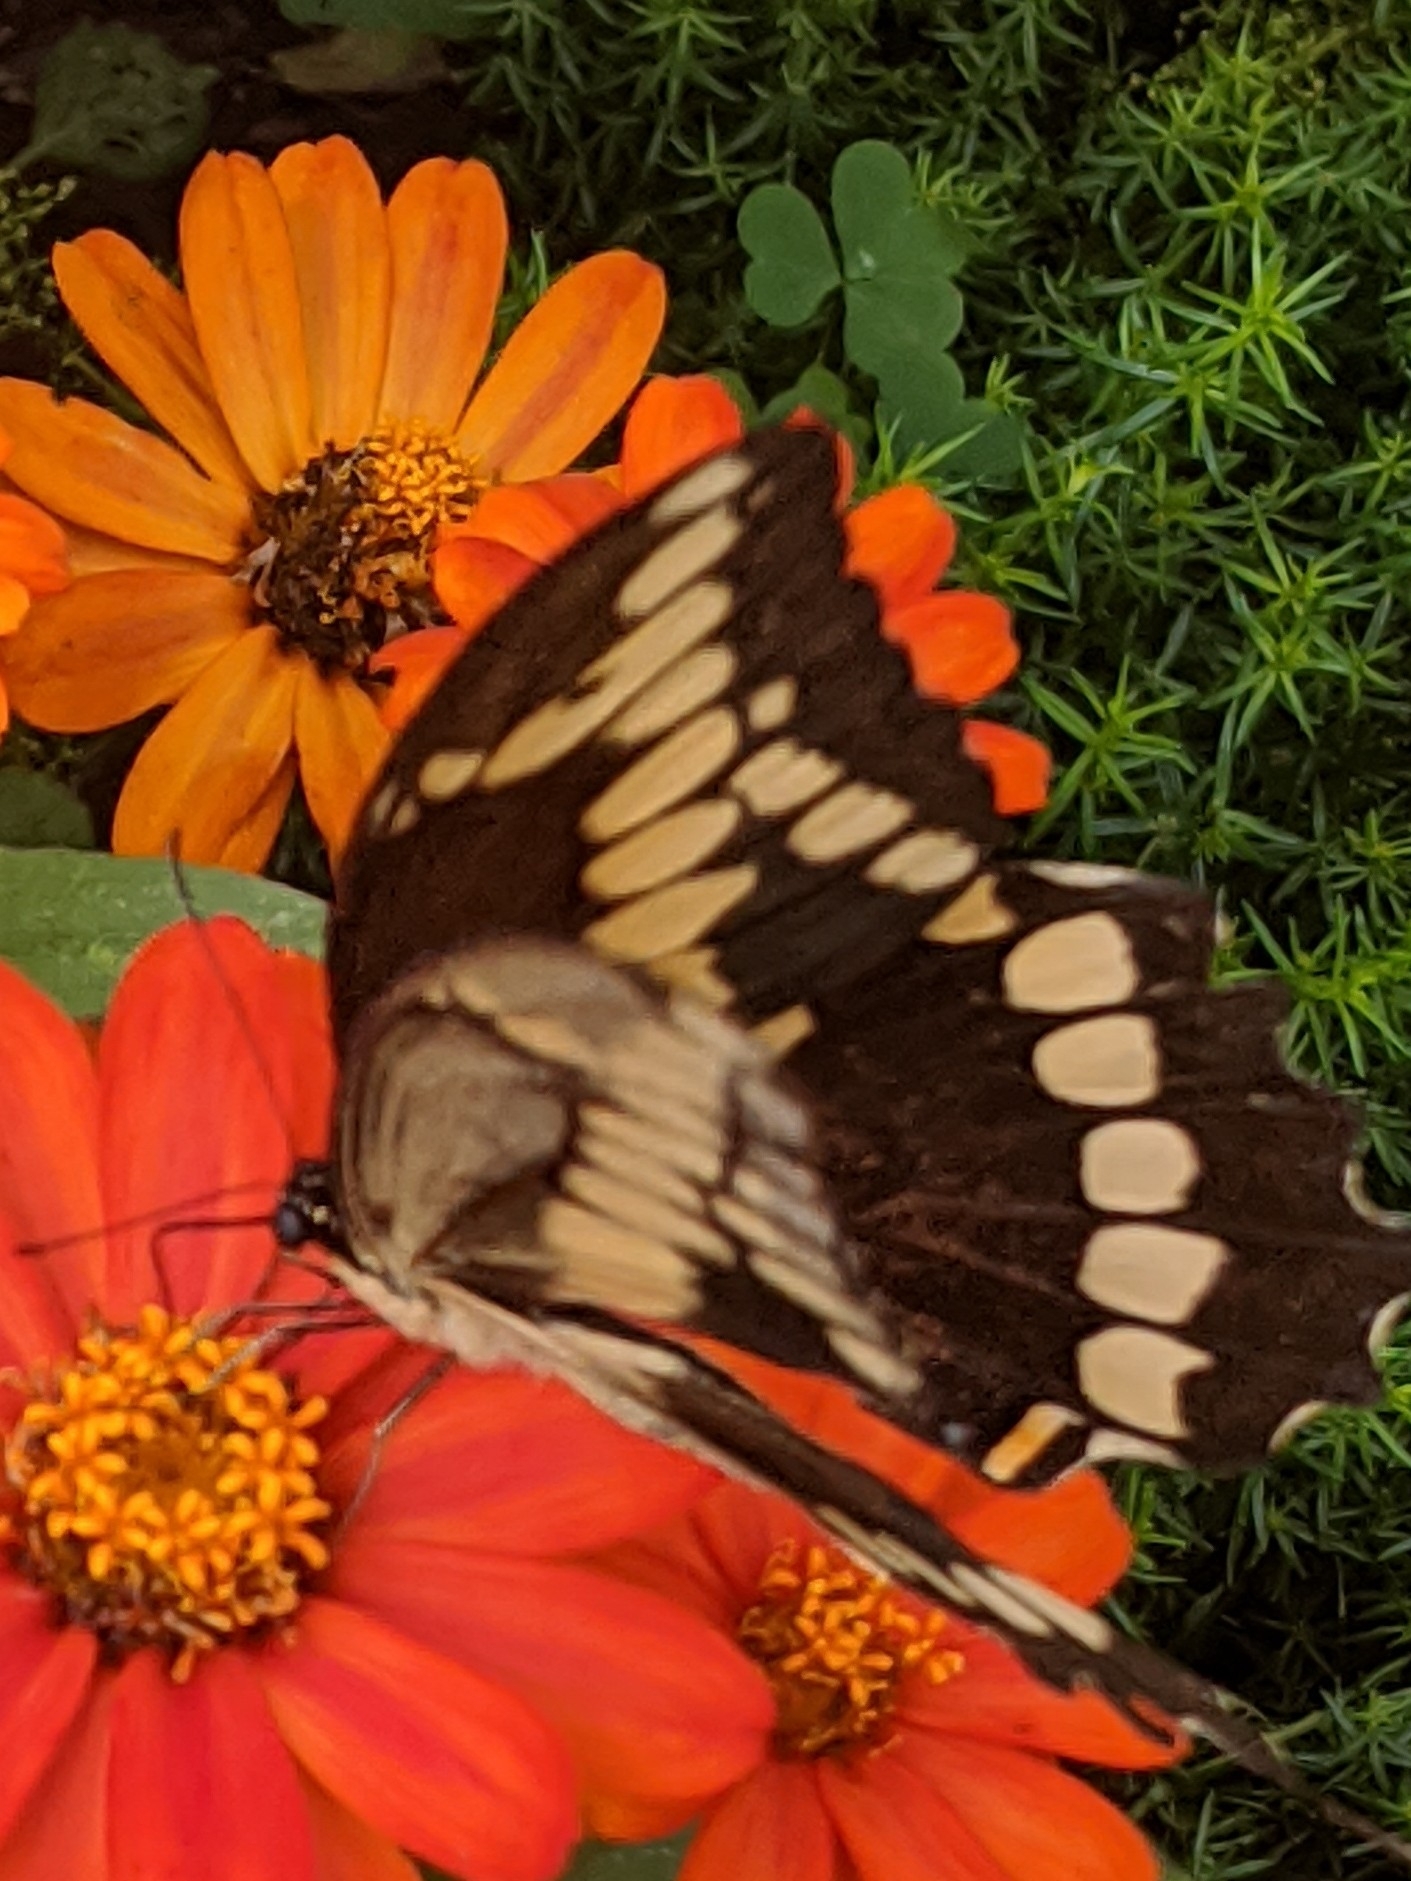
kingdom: Animalia
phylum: Arthropoda
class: Insecta
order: Lepidoptera
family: Papilionidae
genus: Papilio
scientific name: Papilio cresphontes
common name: Giant swallowtail
